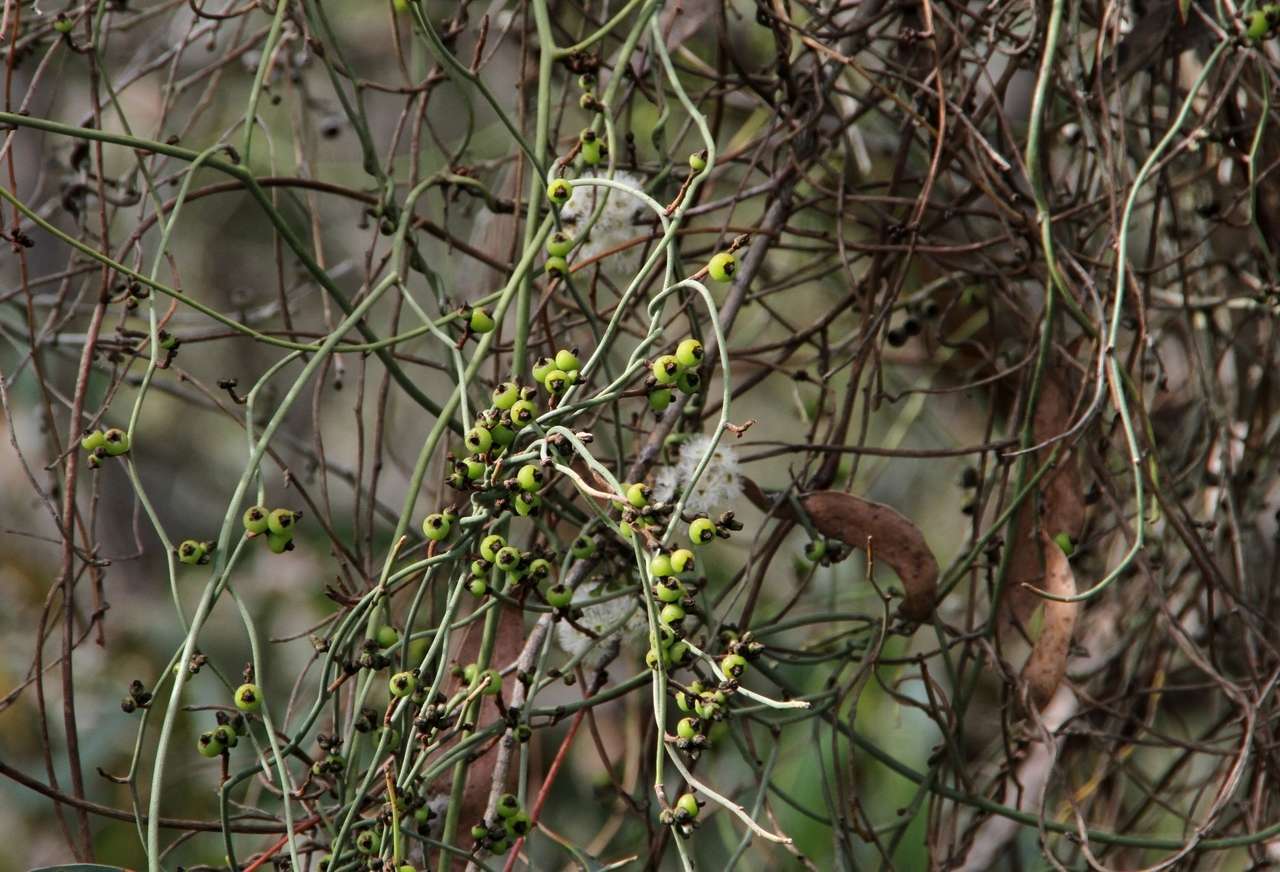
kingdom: Plantae
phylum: Tracheophyta
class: Magnoliopsida
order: Laurales
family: Lauraceae
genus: Cassytha
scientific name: Cassytha melantha
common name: Mallee stranglevine
